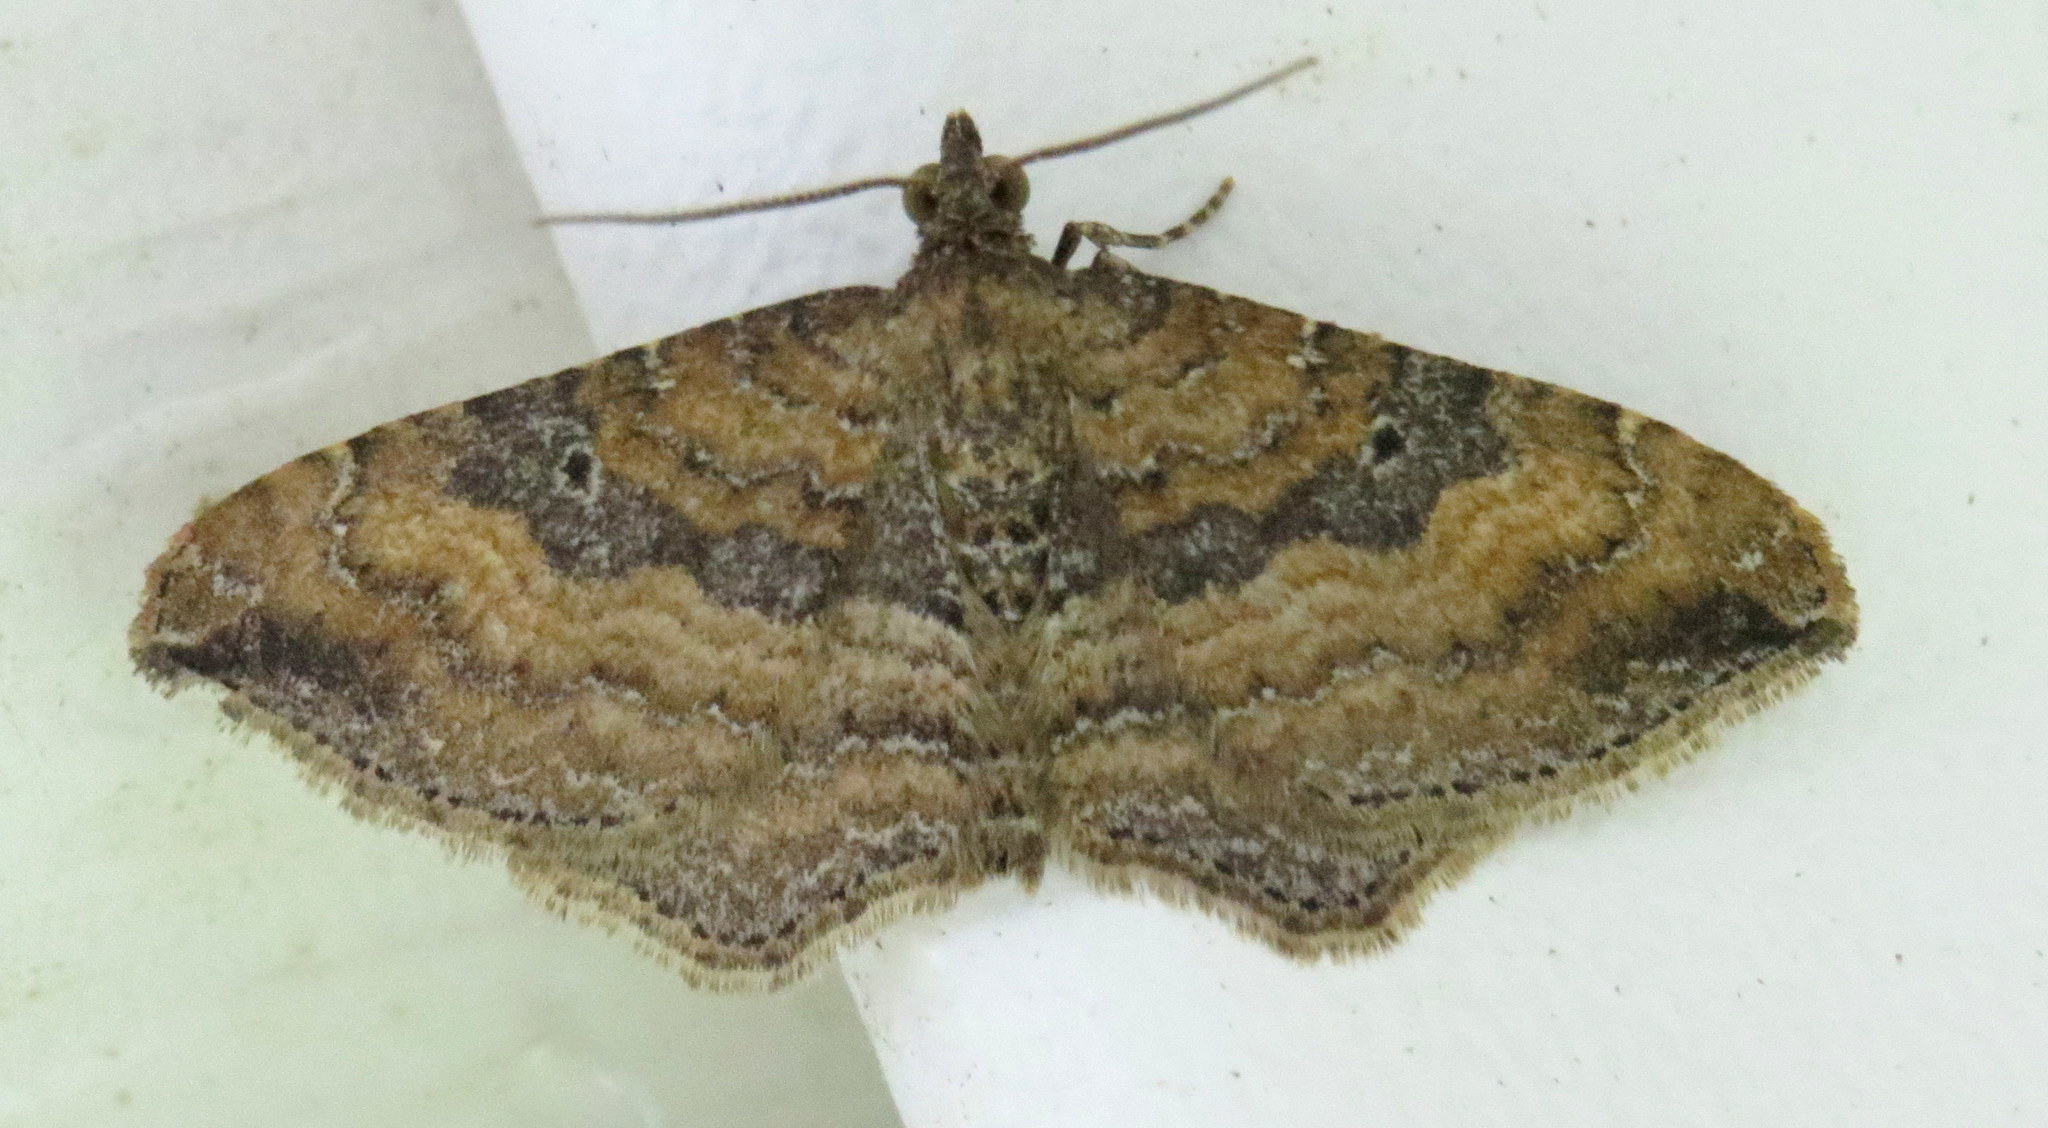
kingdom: Animalia
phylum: Arthropoda
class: Insecta
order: Lepidoptera
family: Geometridae
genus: Orthonama
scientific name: Orthonama obstipata
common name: The gem
